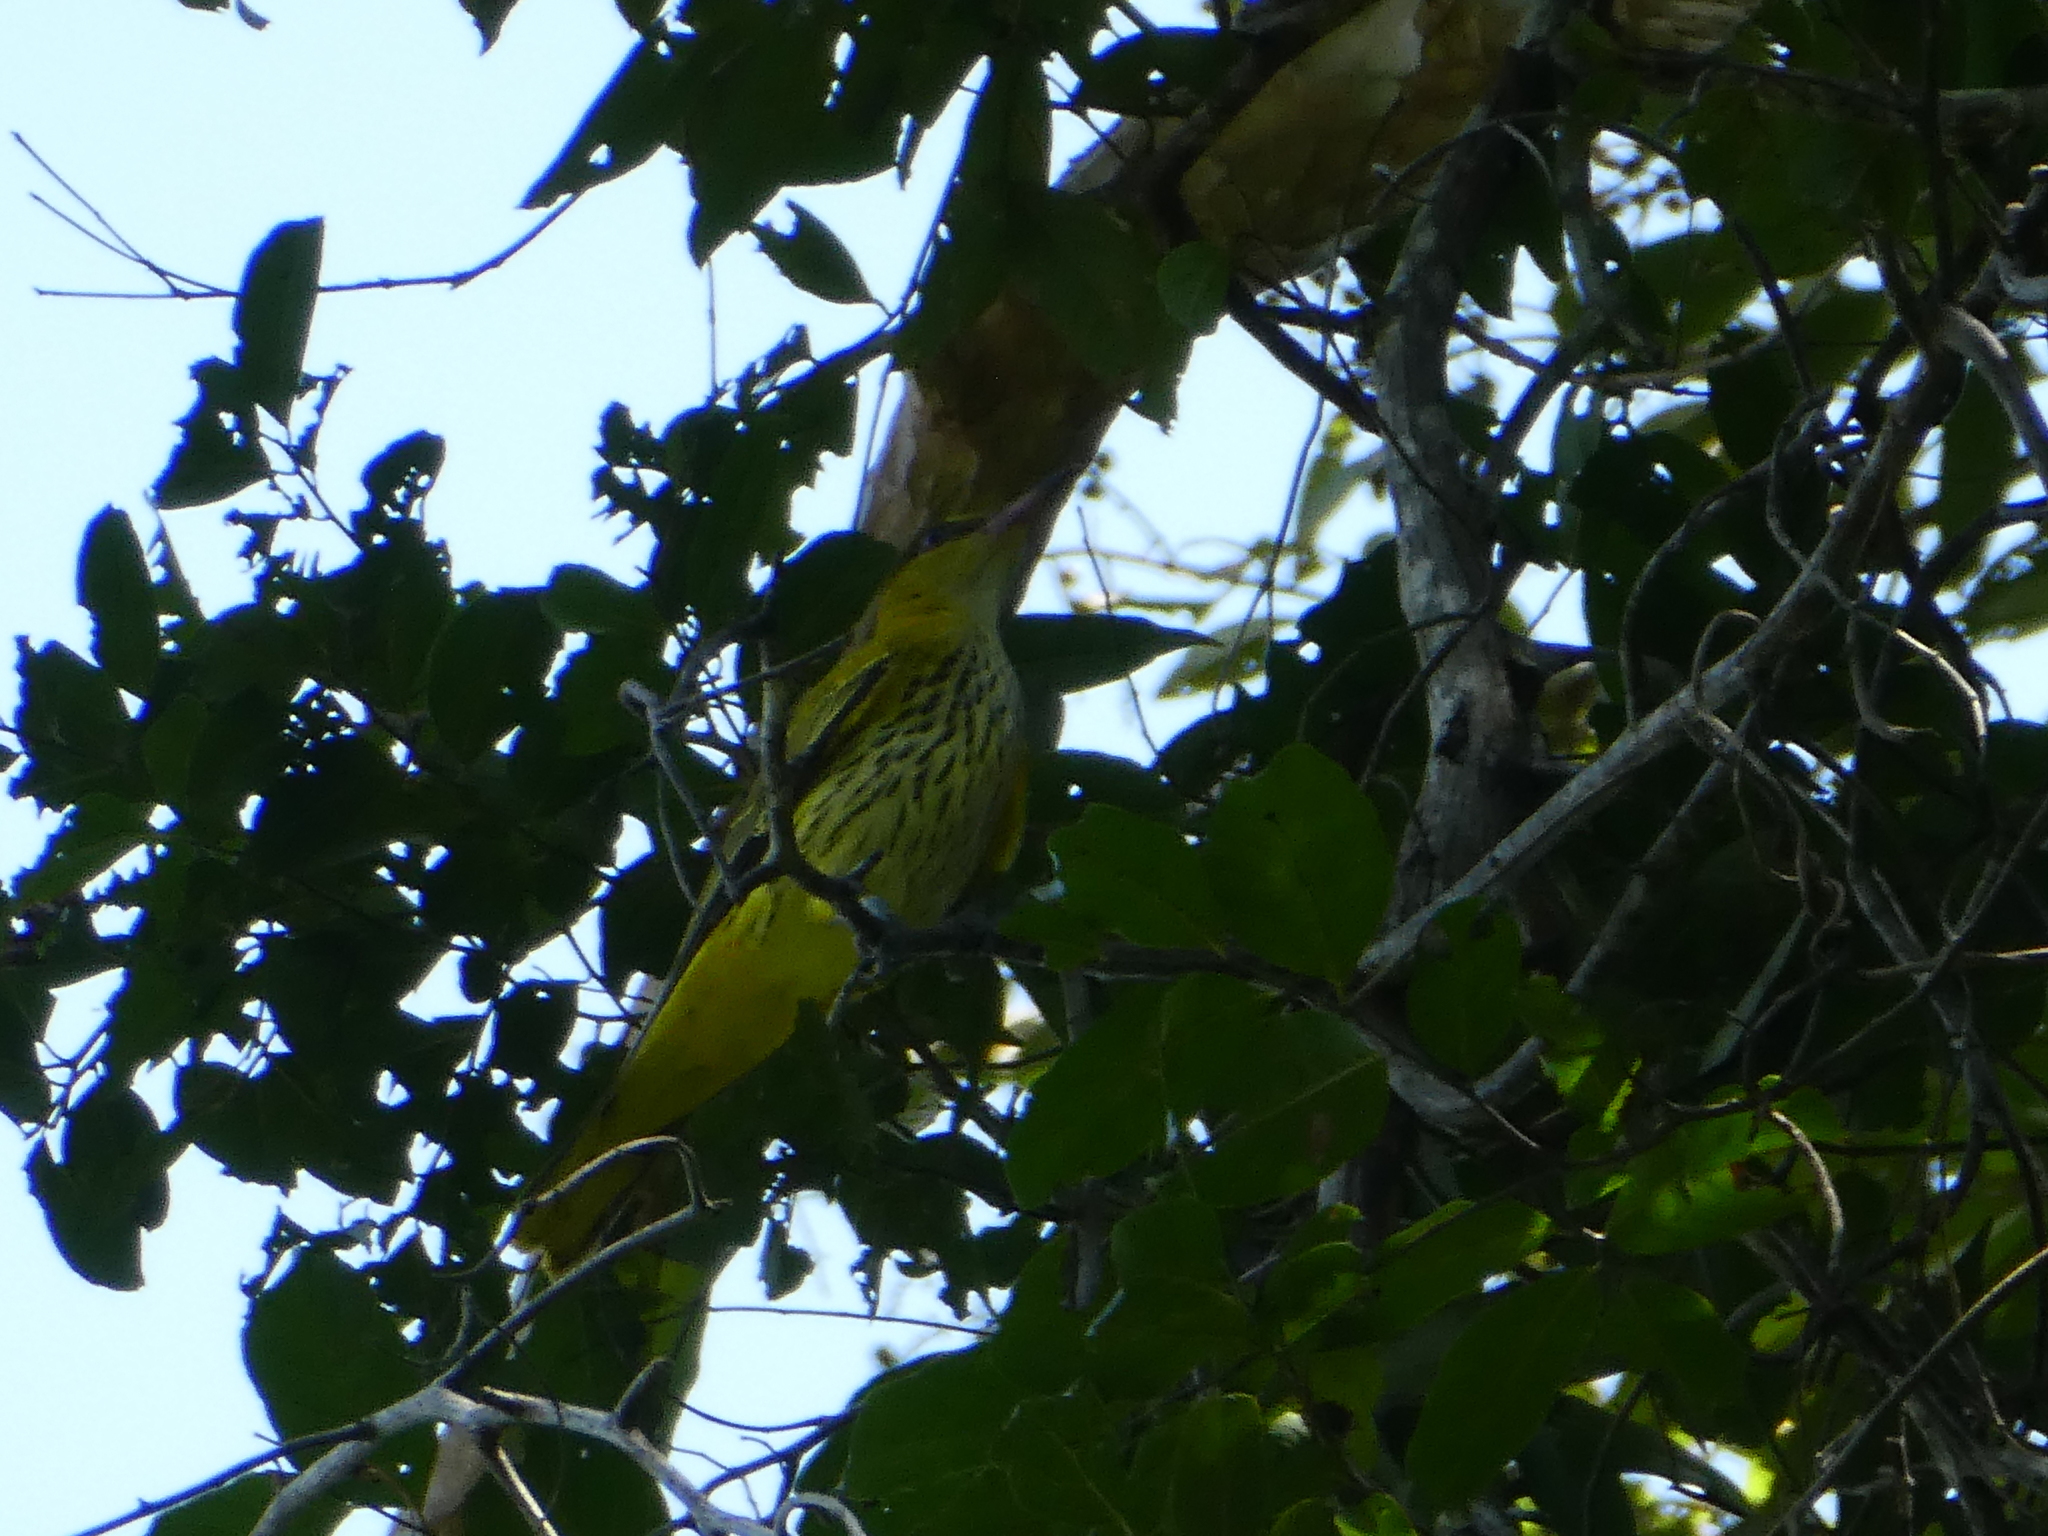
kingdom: Animalia
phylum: Chordata
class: Aves
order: Passeriformes
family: Oriolidae
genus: Oriolus
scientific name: Oriolus chinensis
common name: Black-naped oriole
